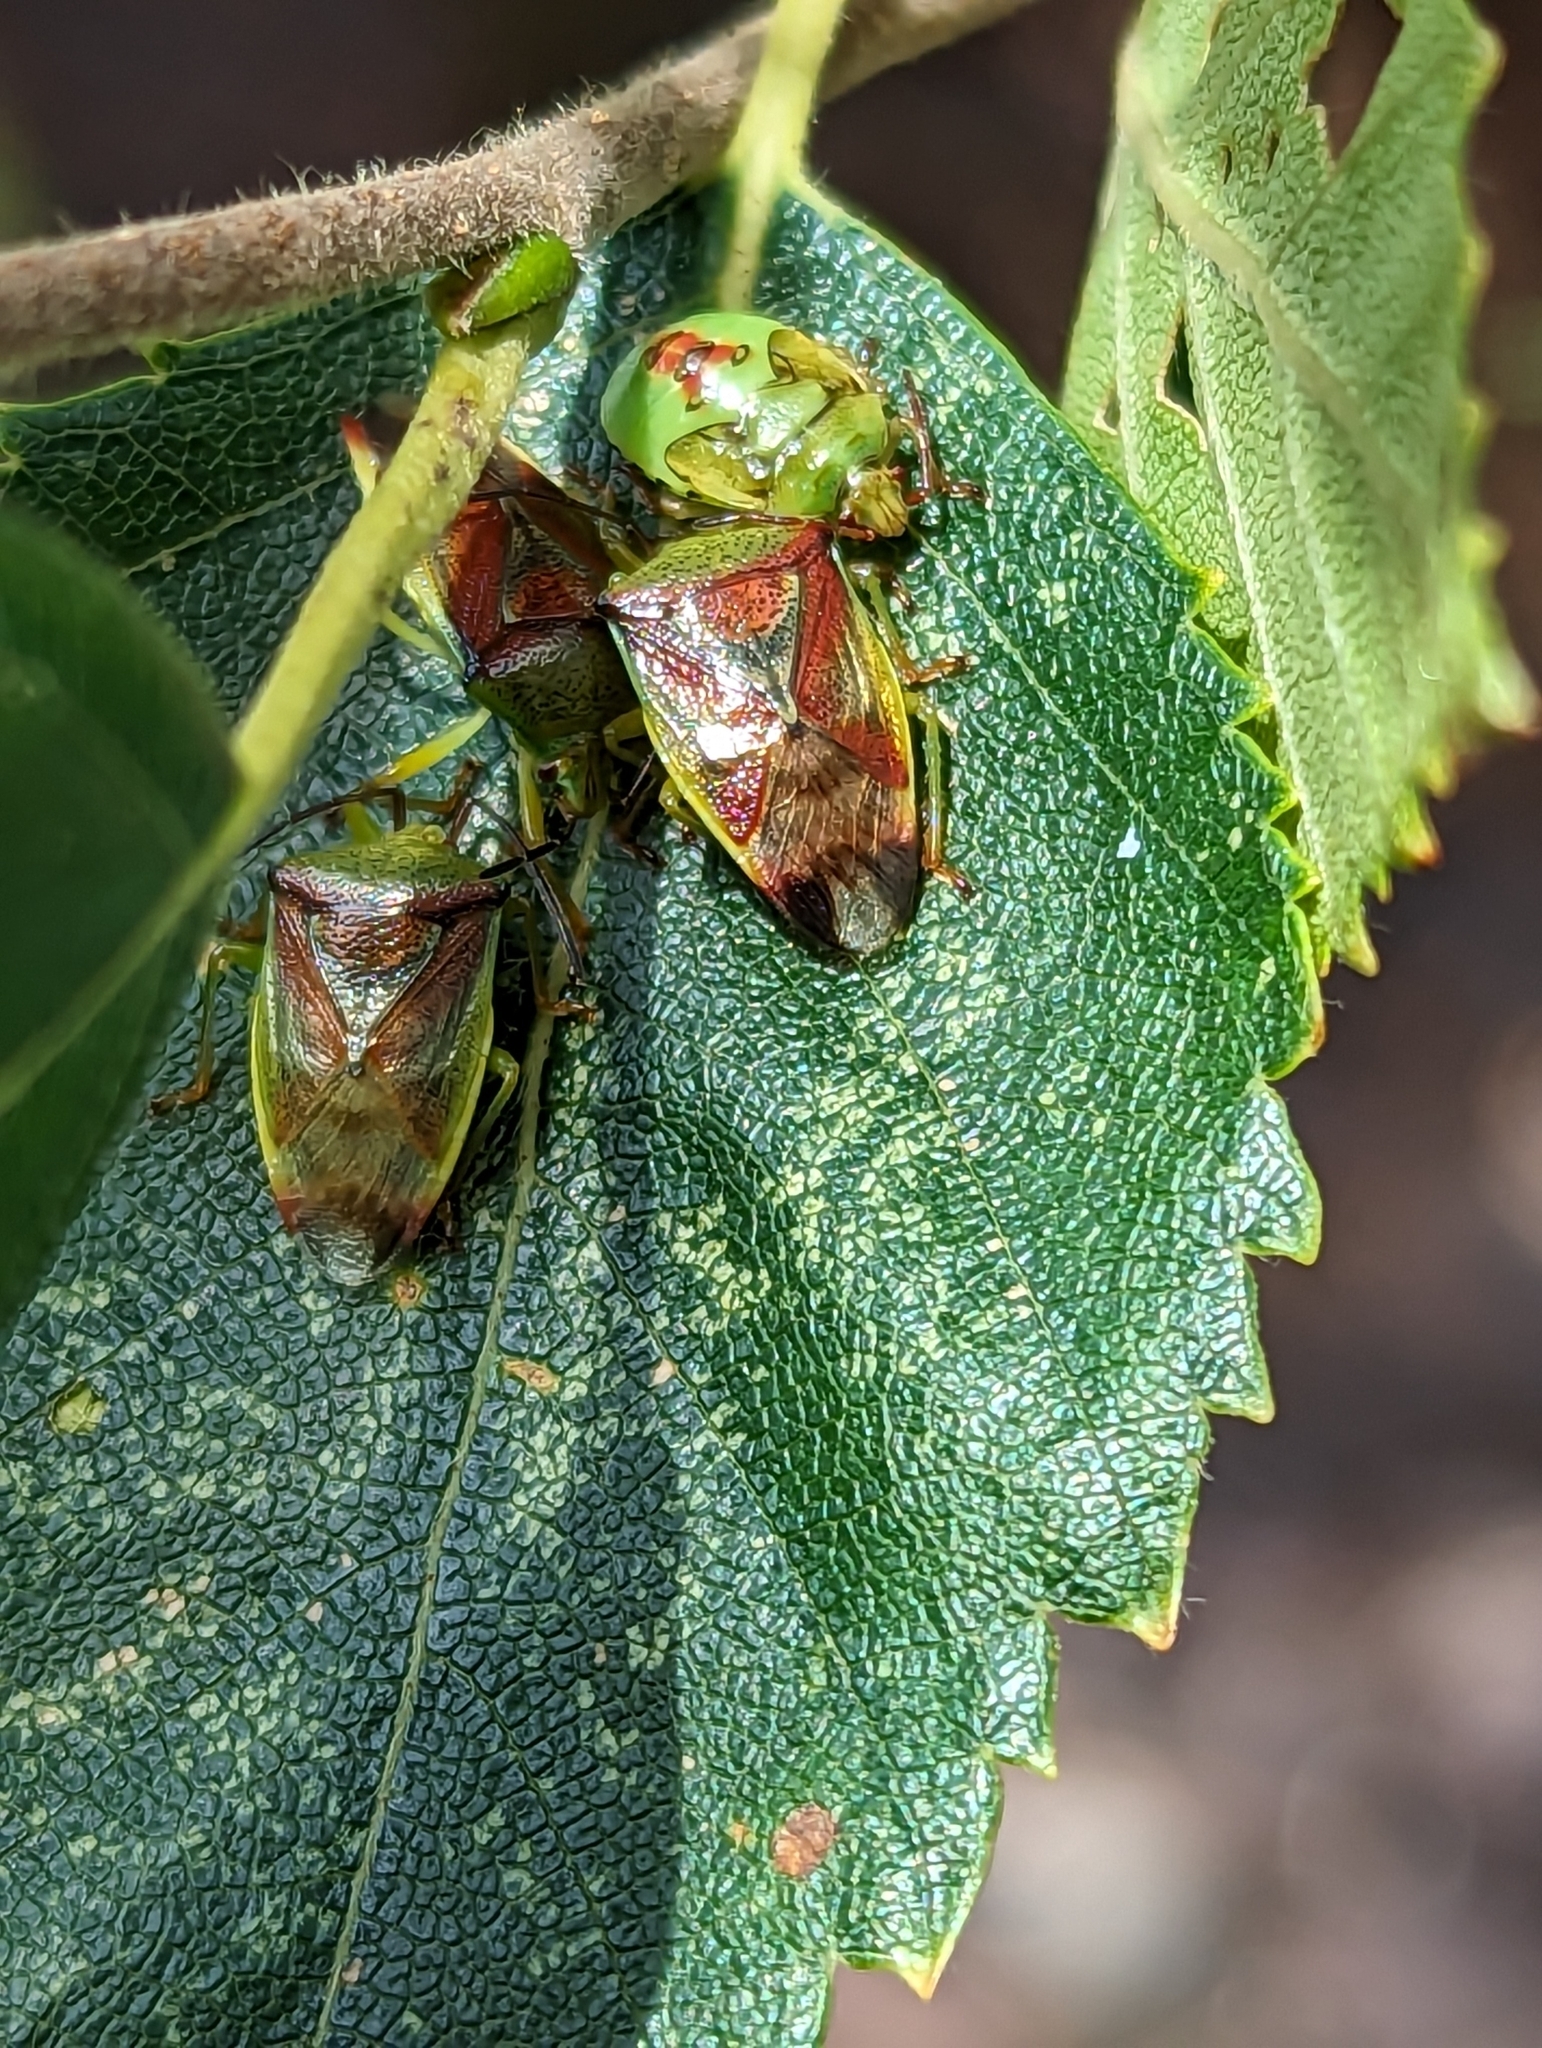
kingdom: Animalia
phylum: Arthropoda
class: Insecta
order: Hemiptera
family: Acanthosomatidae
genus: Elasmostethus
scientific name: Elasmostethus interstinctus
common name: Birch shieldbug
